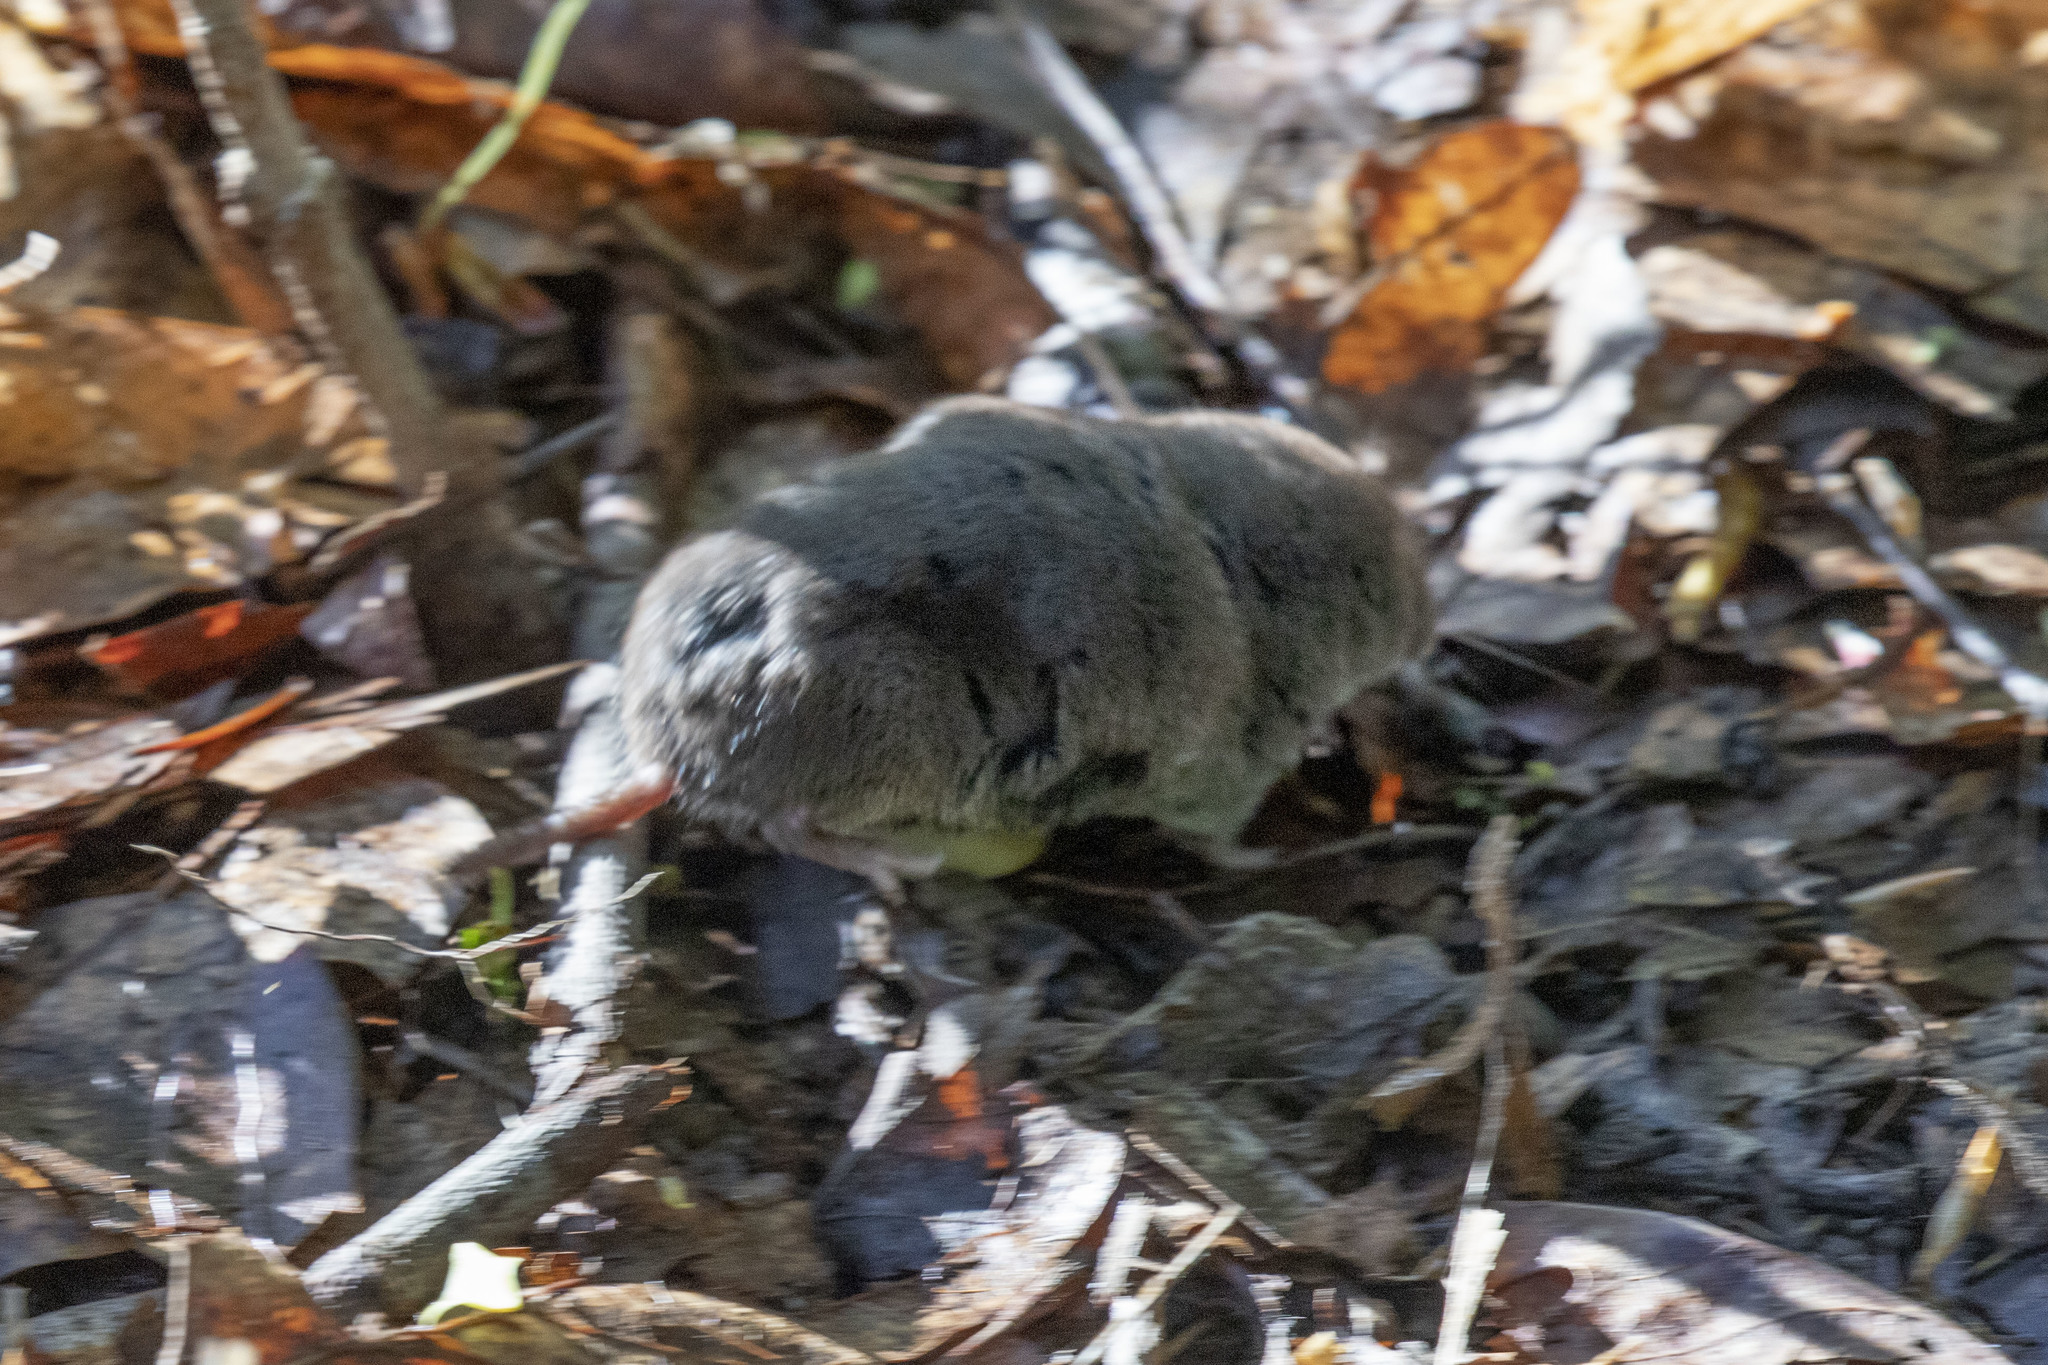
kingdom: Animalia
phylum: Chordata
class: Mammalia
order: Soricomorpha
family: Soricidae
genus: Blarina
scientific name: Blarina brevicauda
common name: Northern short-tailed shrew
